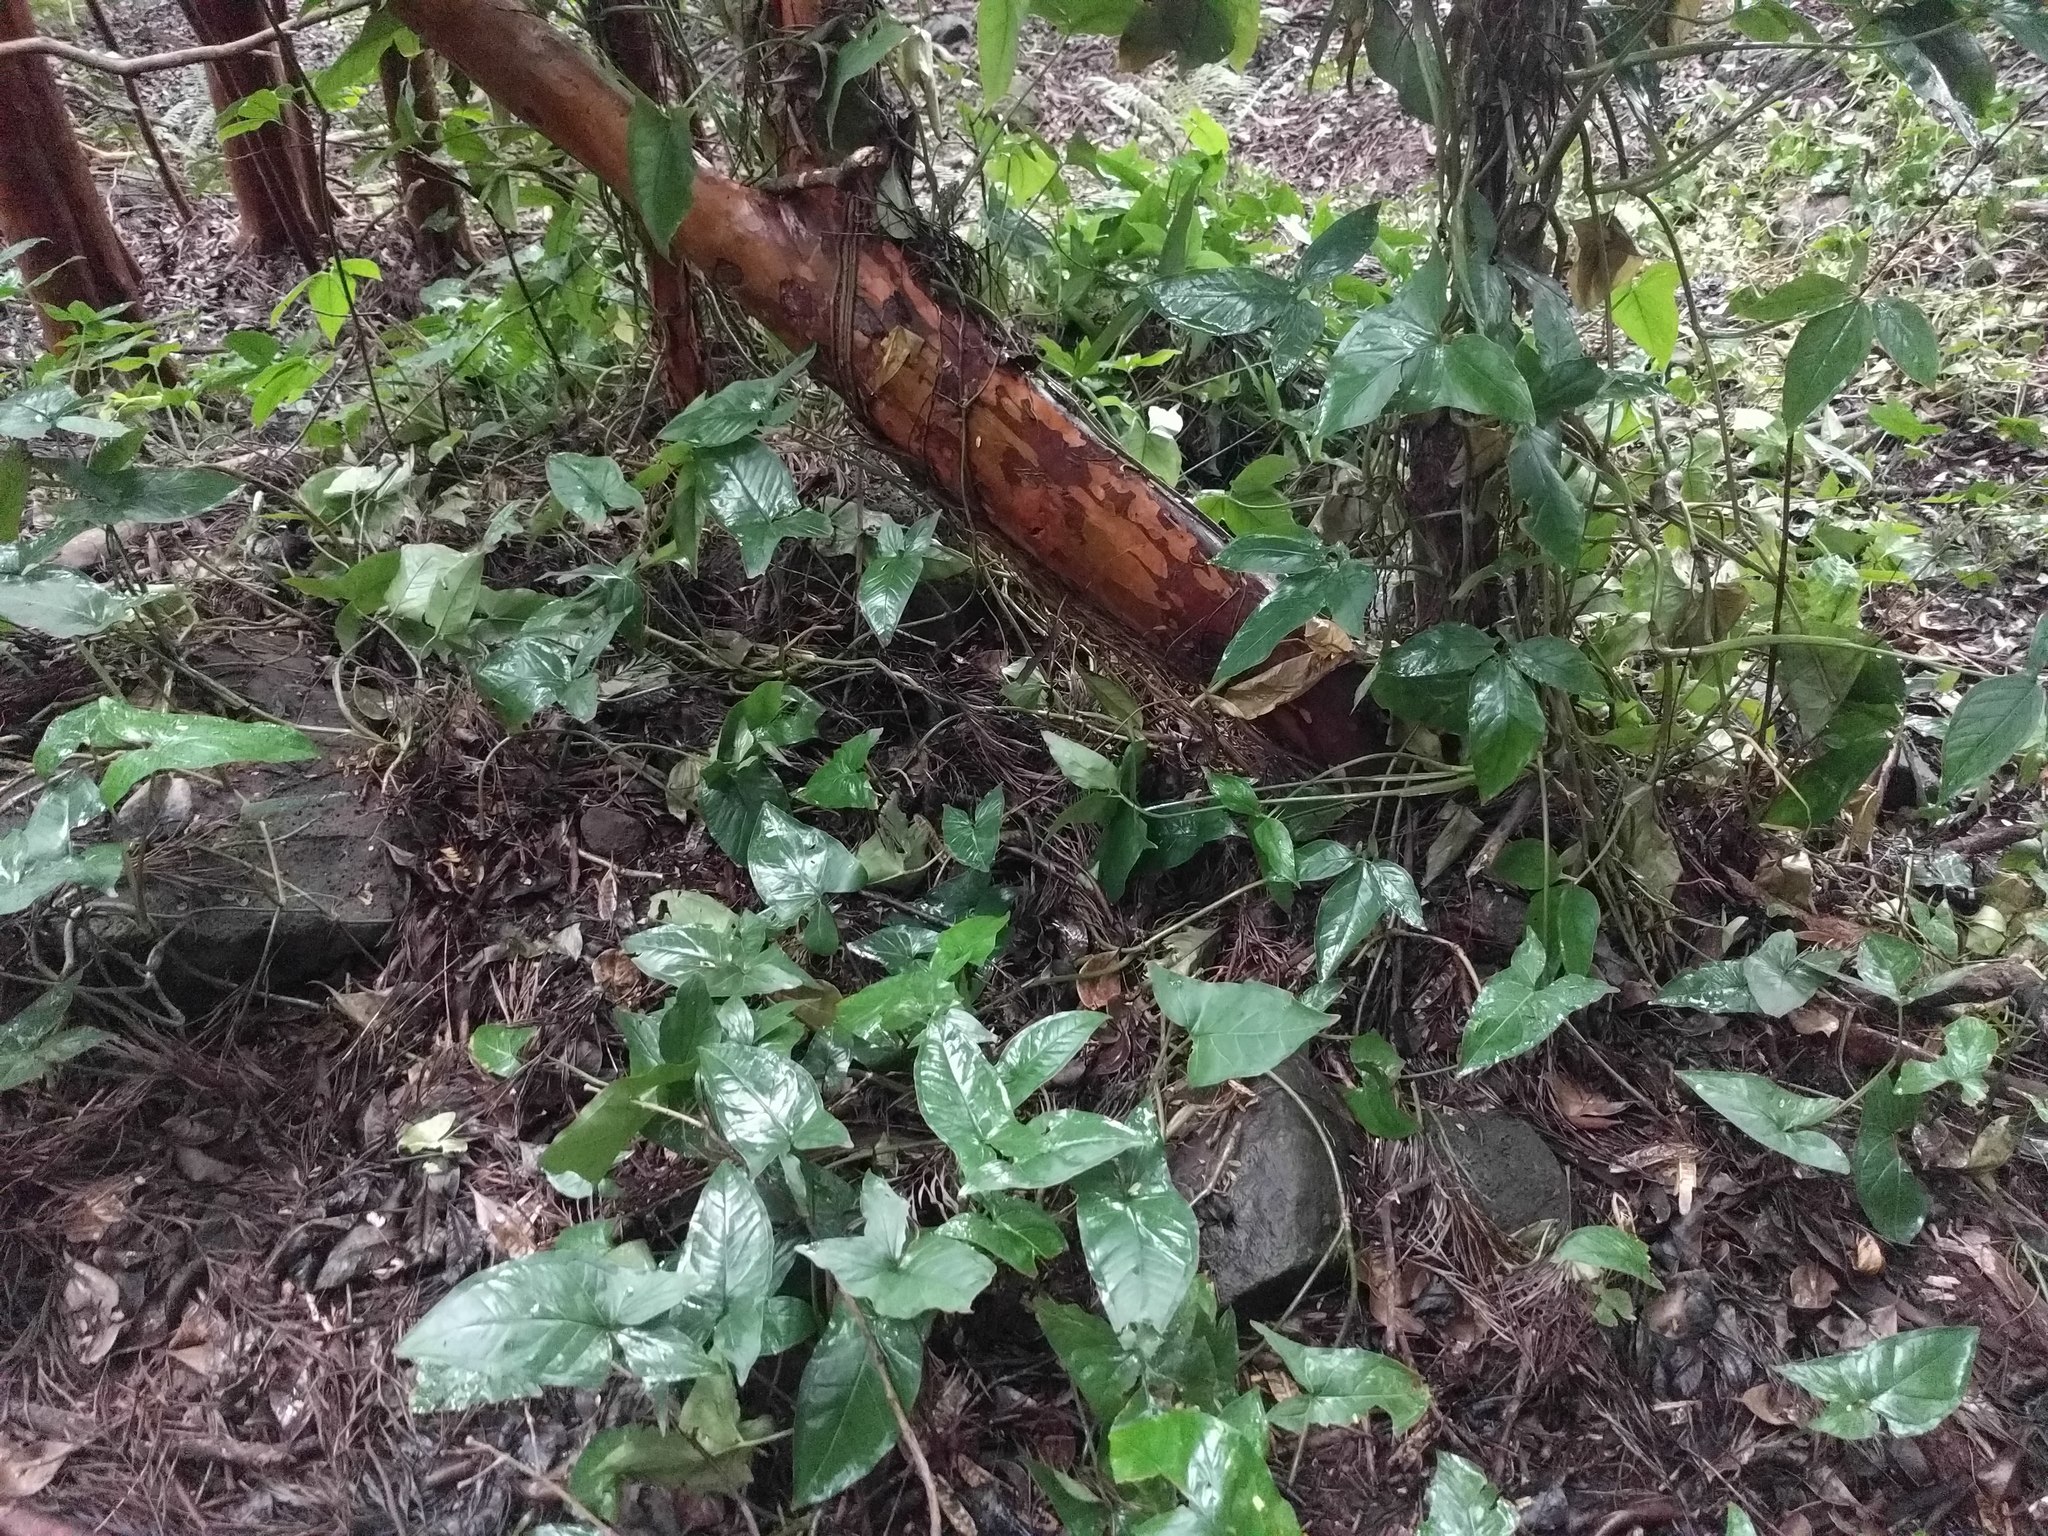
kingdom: Plantae
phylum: Tracheophyta
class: Liliopsida
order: Alismatales
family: Araceae
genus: Syngonium
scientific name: Syngonium podophyllum
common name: American evergreen
